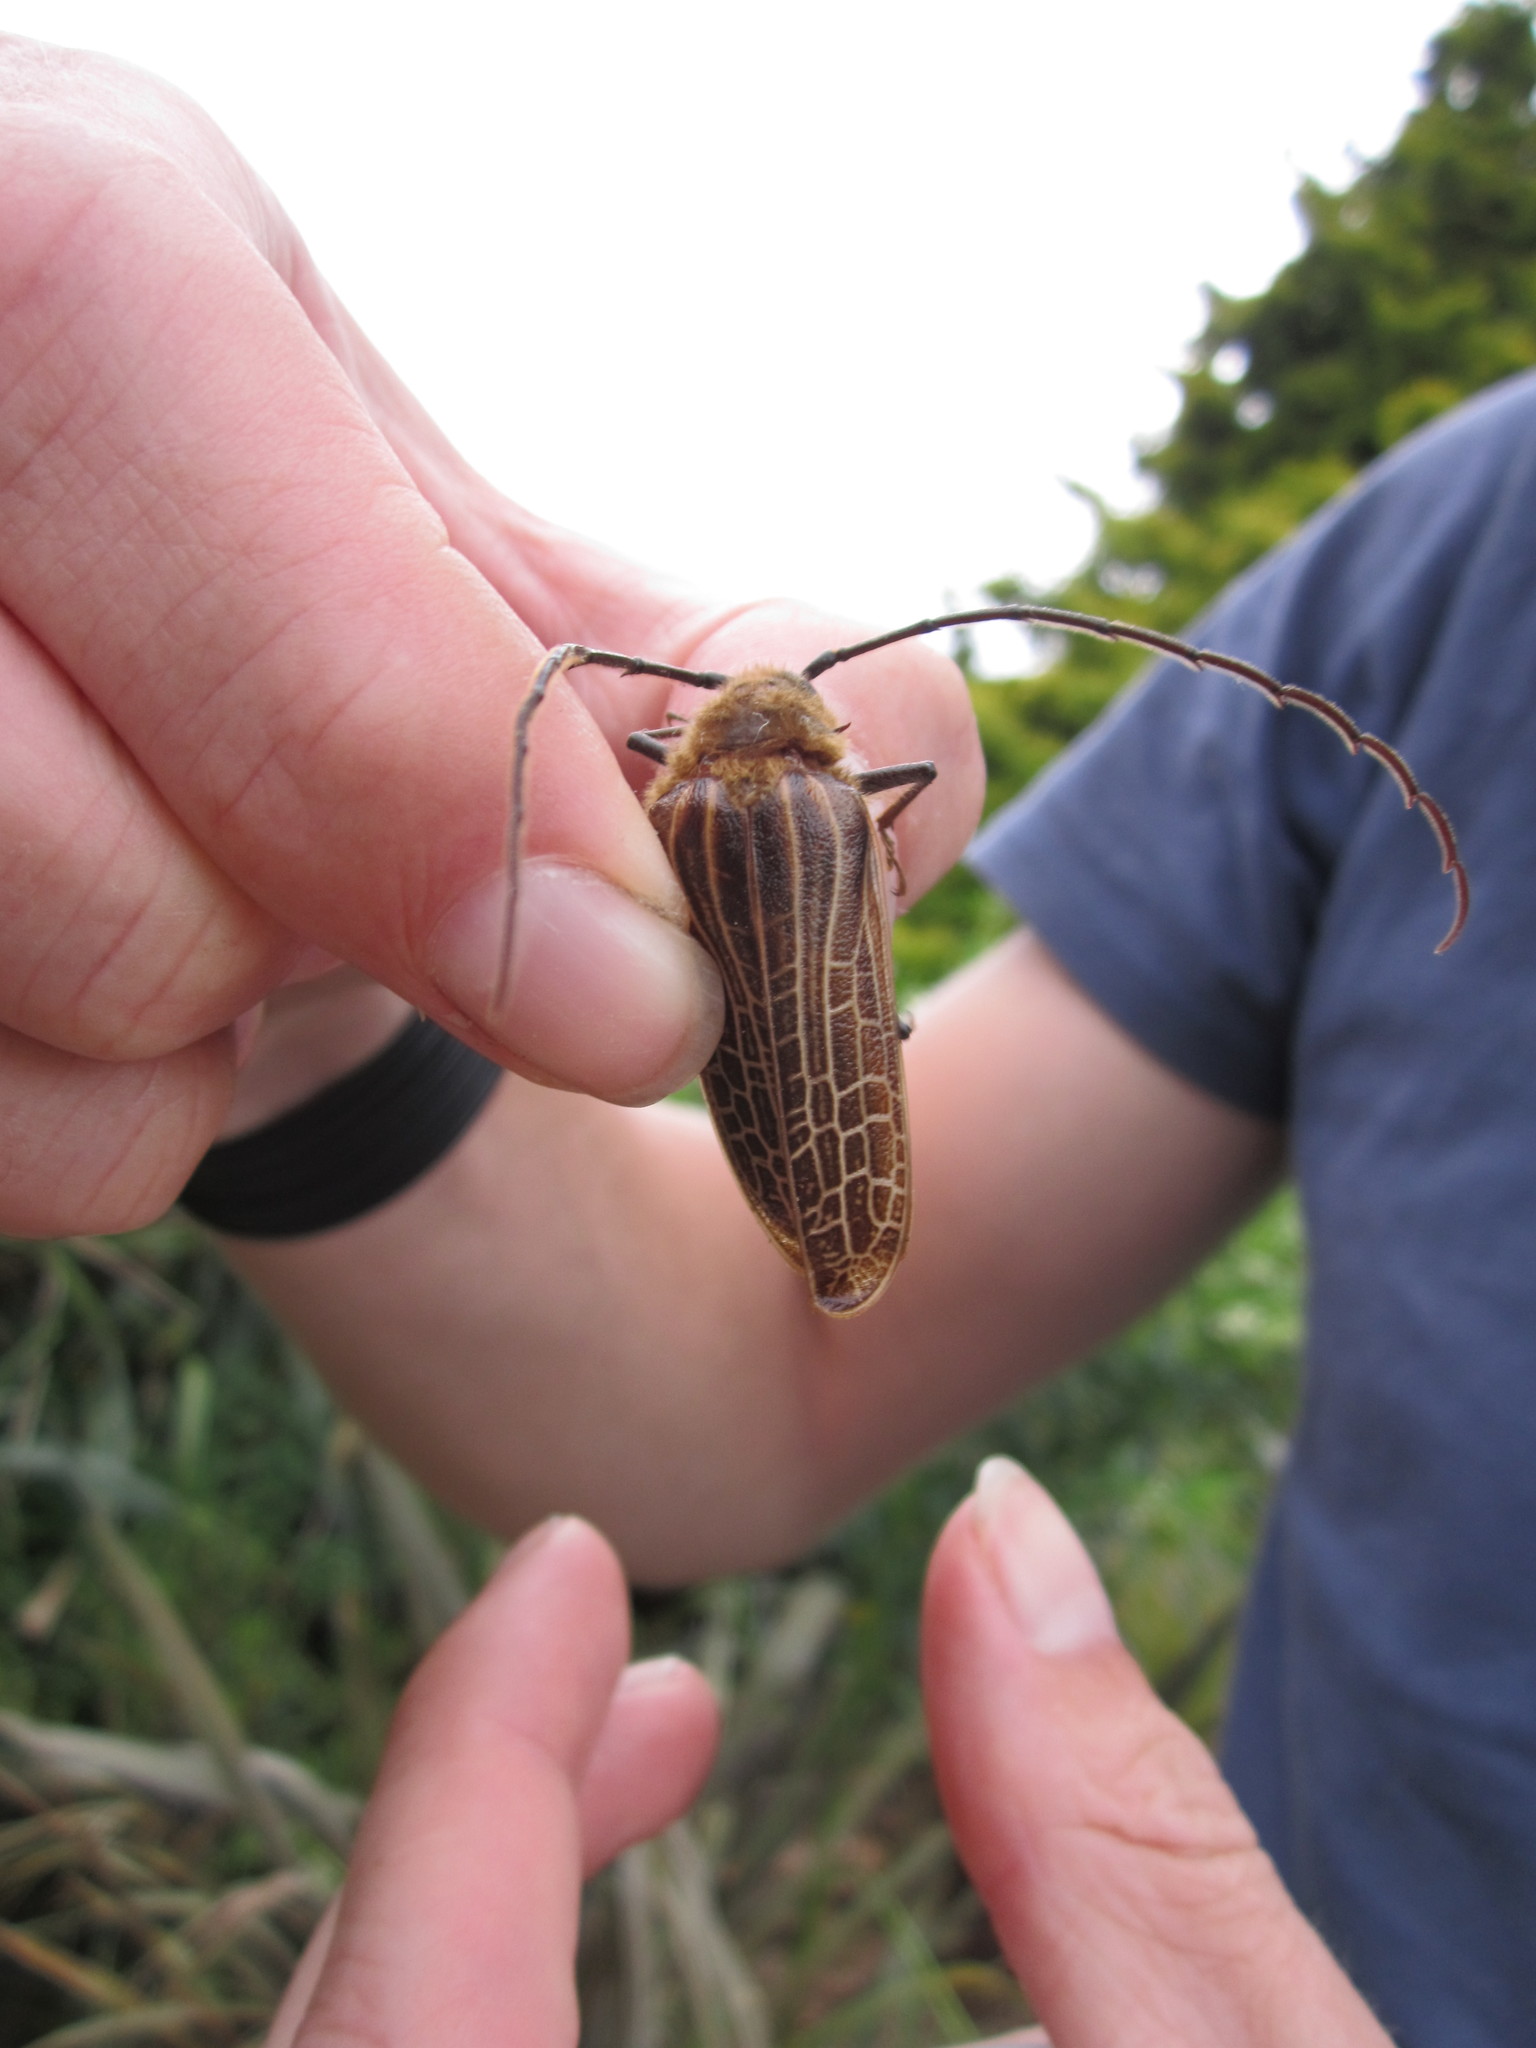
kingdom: Animalia
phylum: Arthropoda
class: Insecta
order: Coleoptera
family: Cerambycidae
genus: Prionoplus
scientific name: Prionoplus reticularis
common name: Huhu beetle
